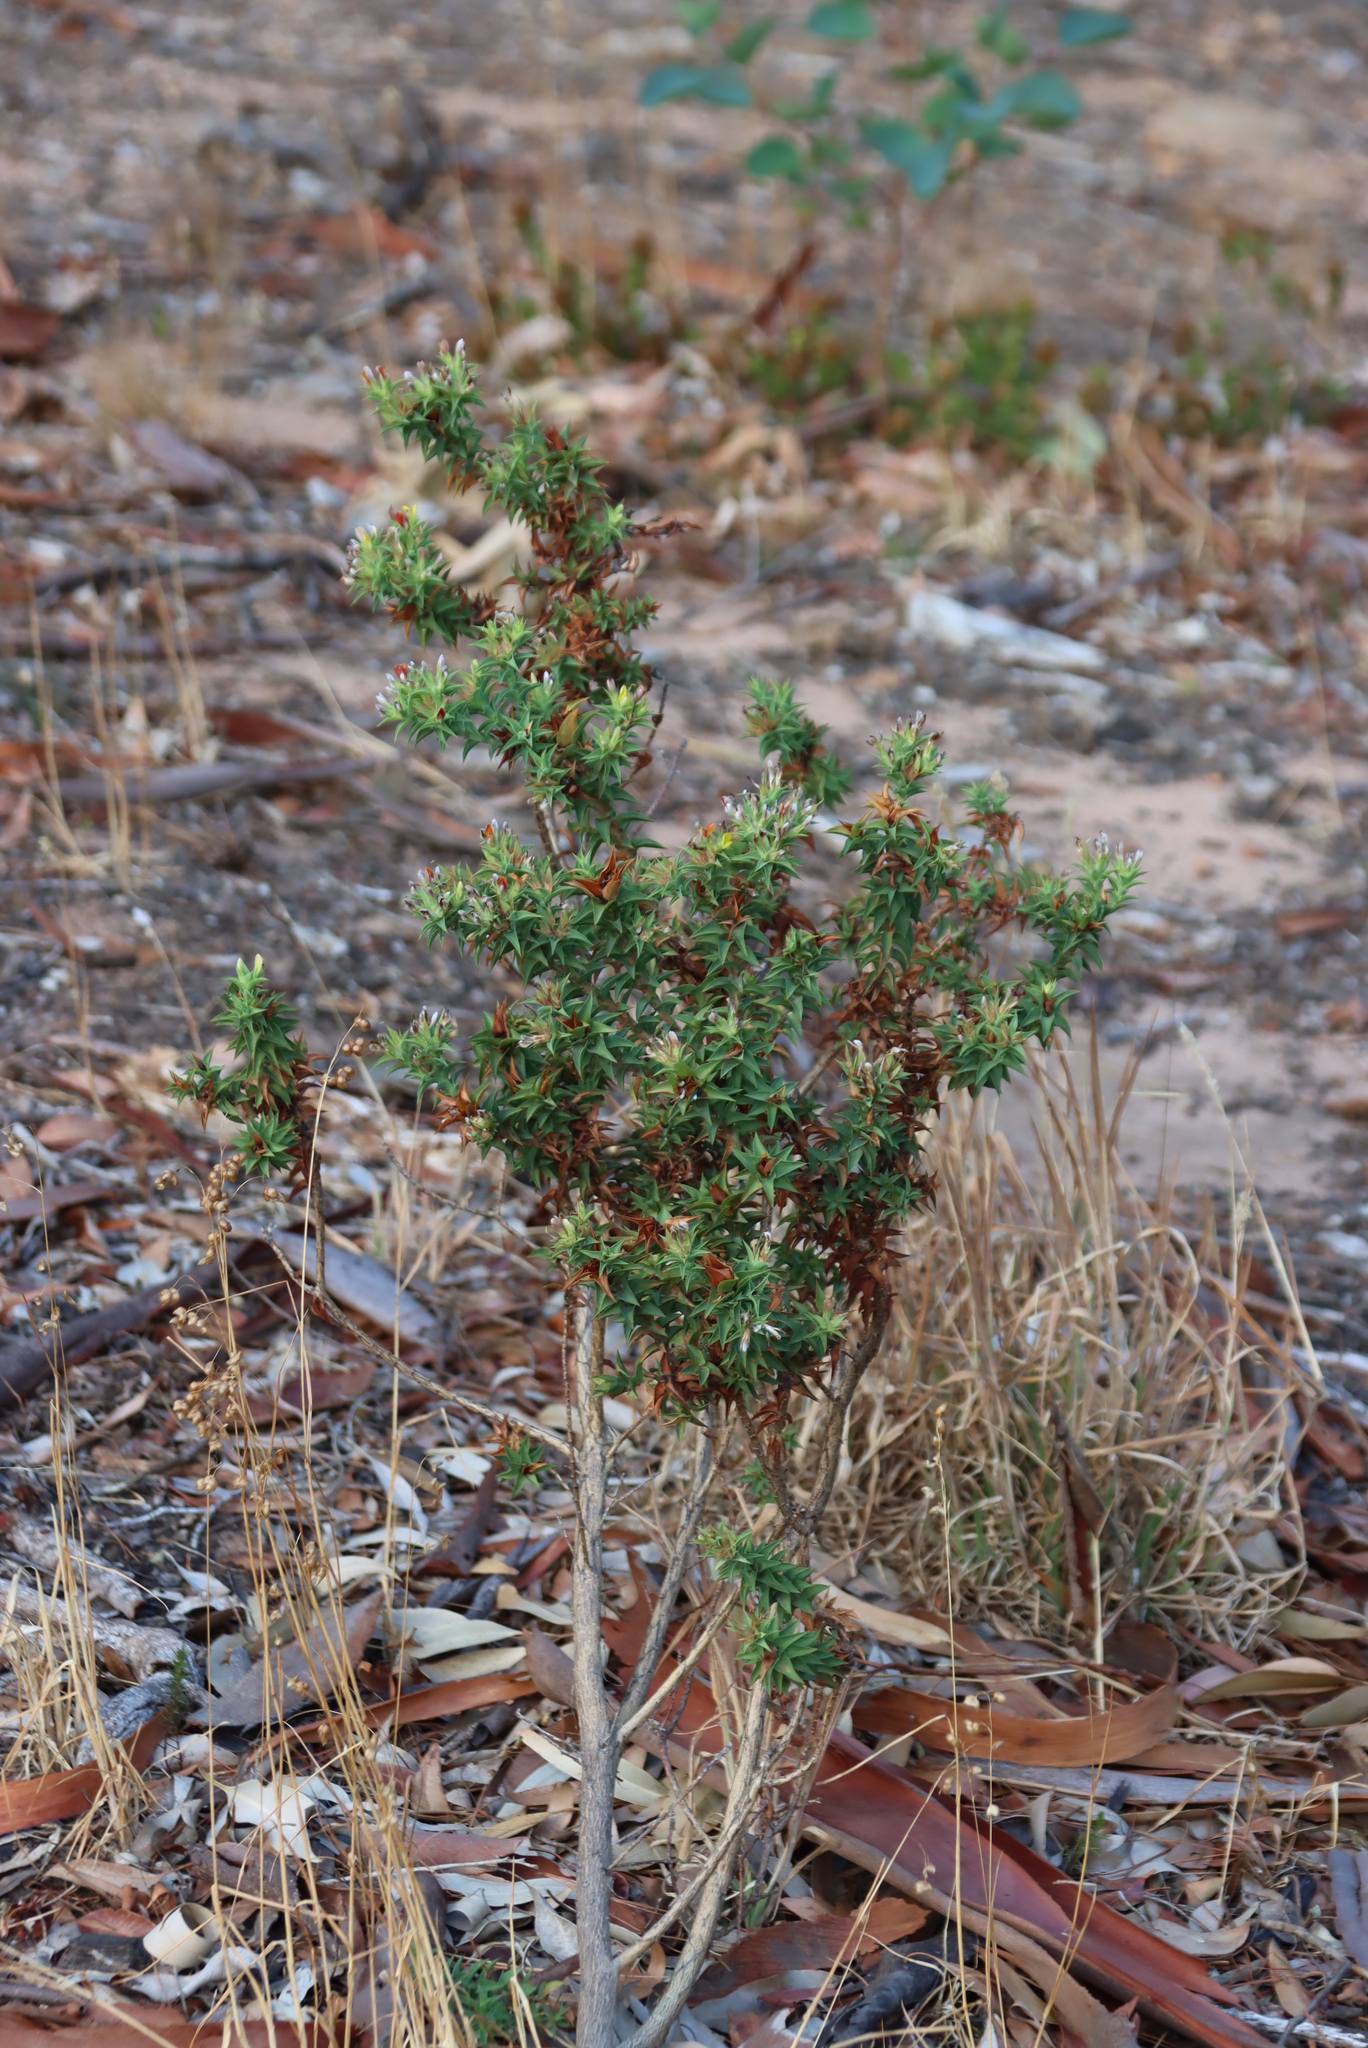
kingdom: Plantae
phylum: Tracheophyta
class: Magnoliopsida
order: Fabales
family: Fabaceae
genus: Aspalathus
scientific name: Aspalathus cordata
